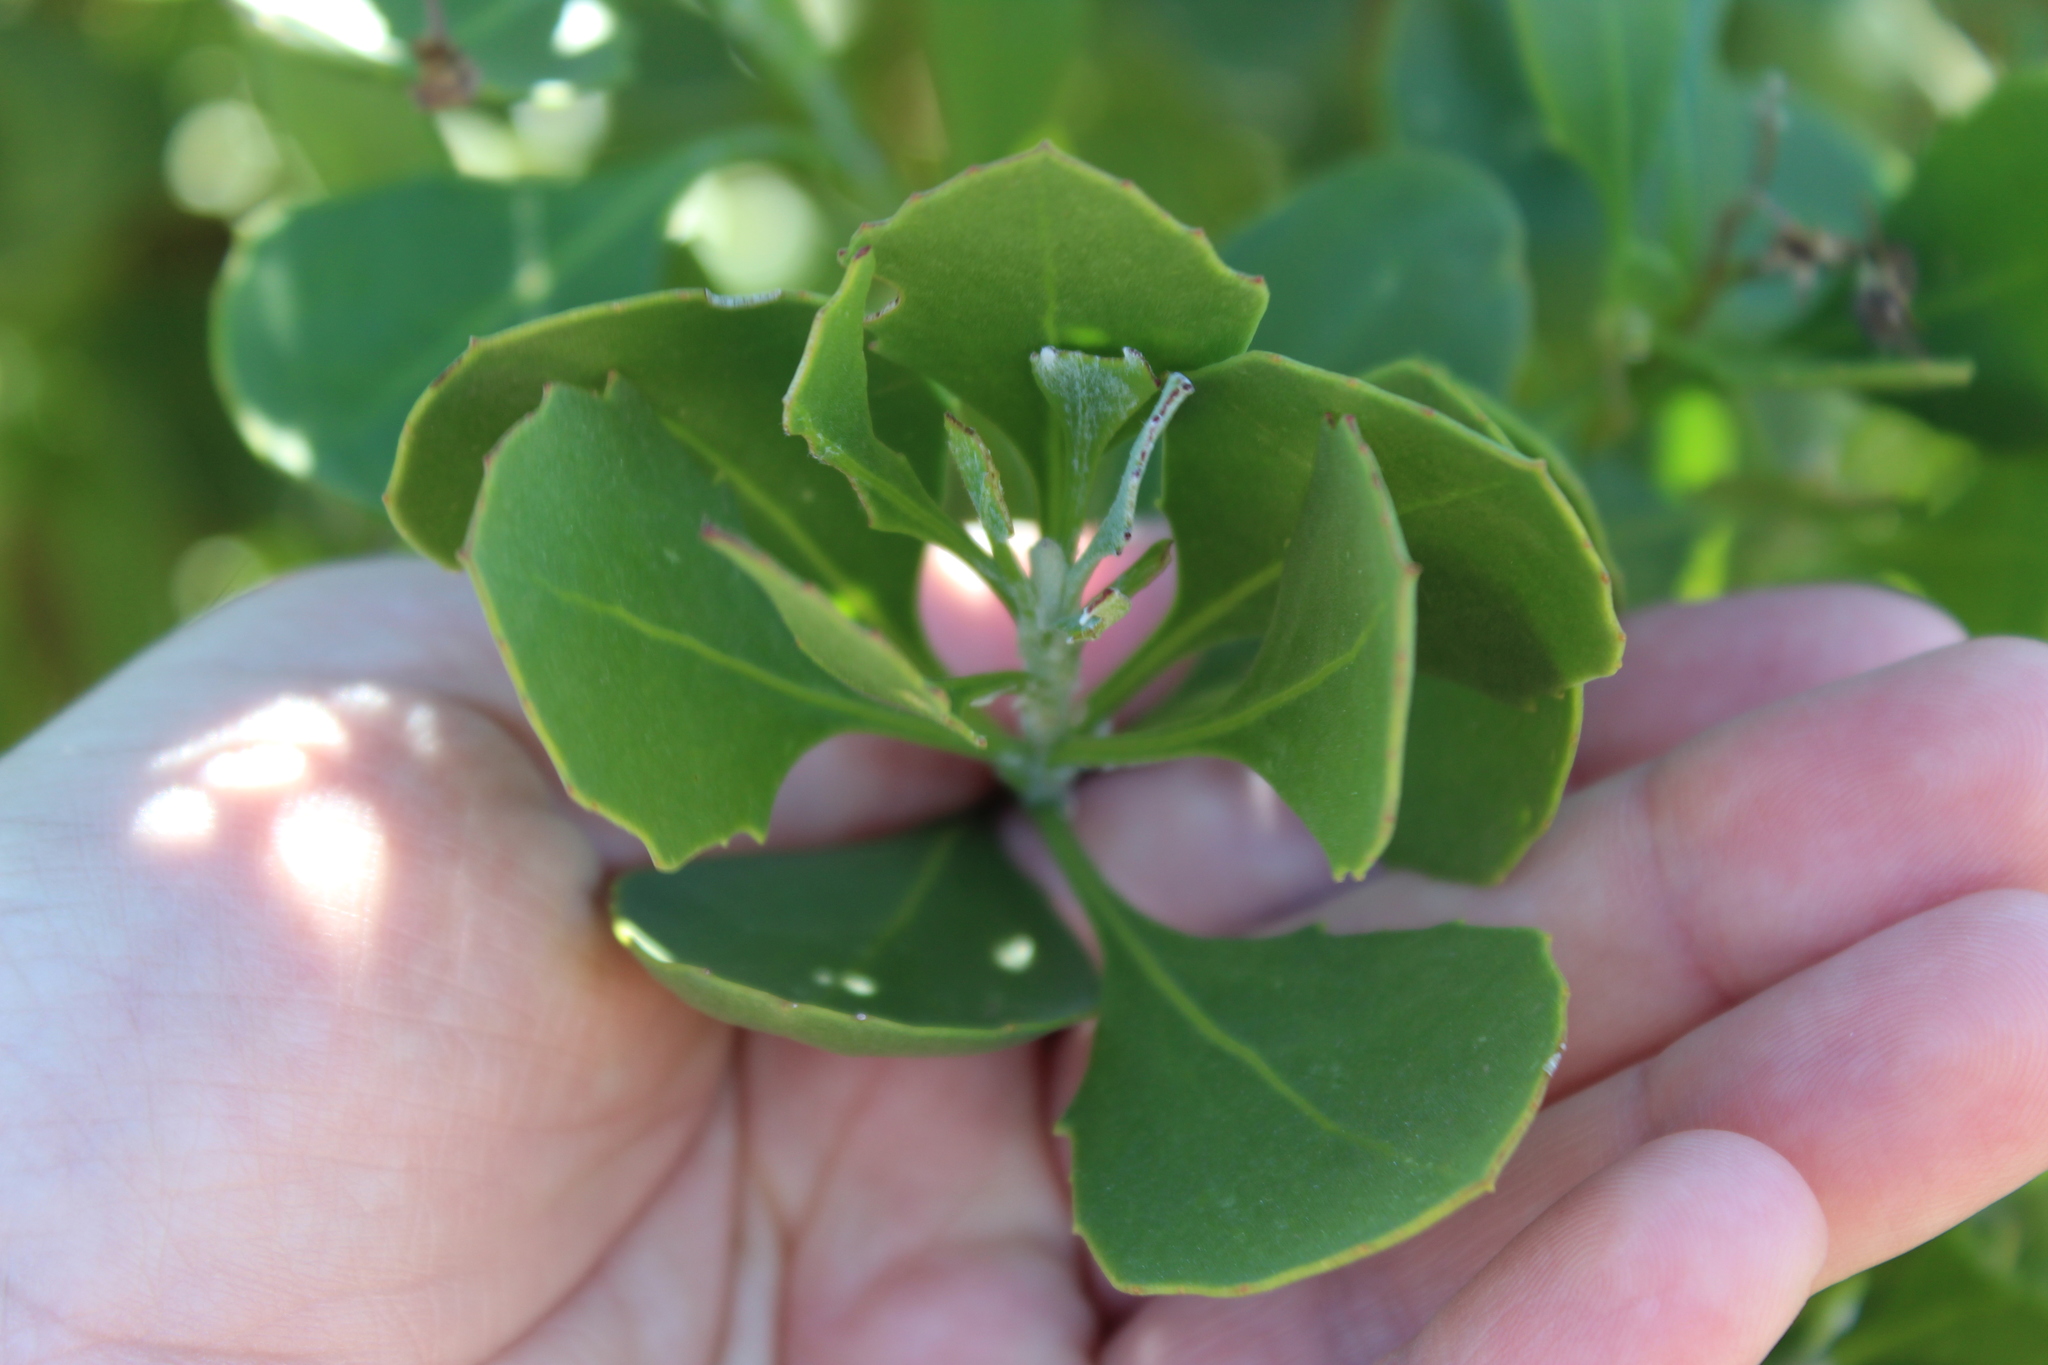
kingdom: Plantae
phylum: Tracheophyta
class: Magnoliopsida
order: Asterales
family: Asteraceae
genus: Osteospermum
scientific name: Osteospermum moniliferum
